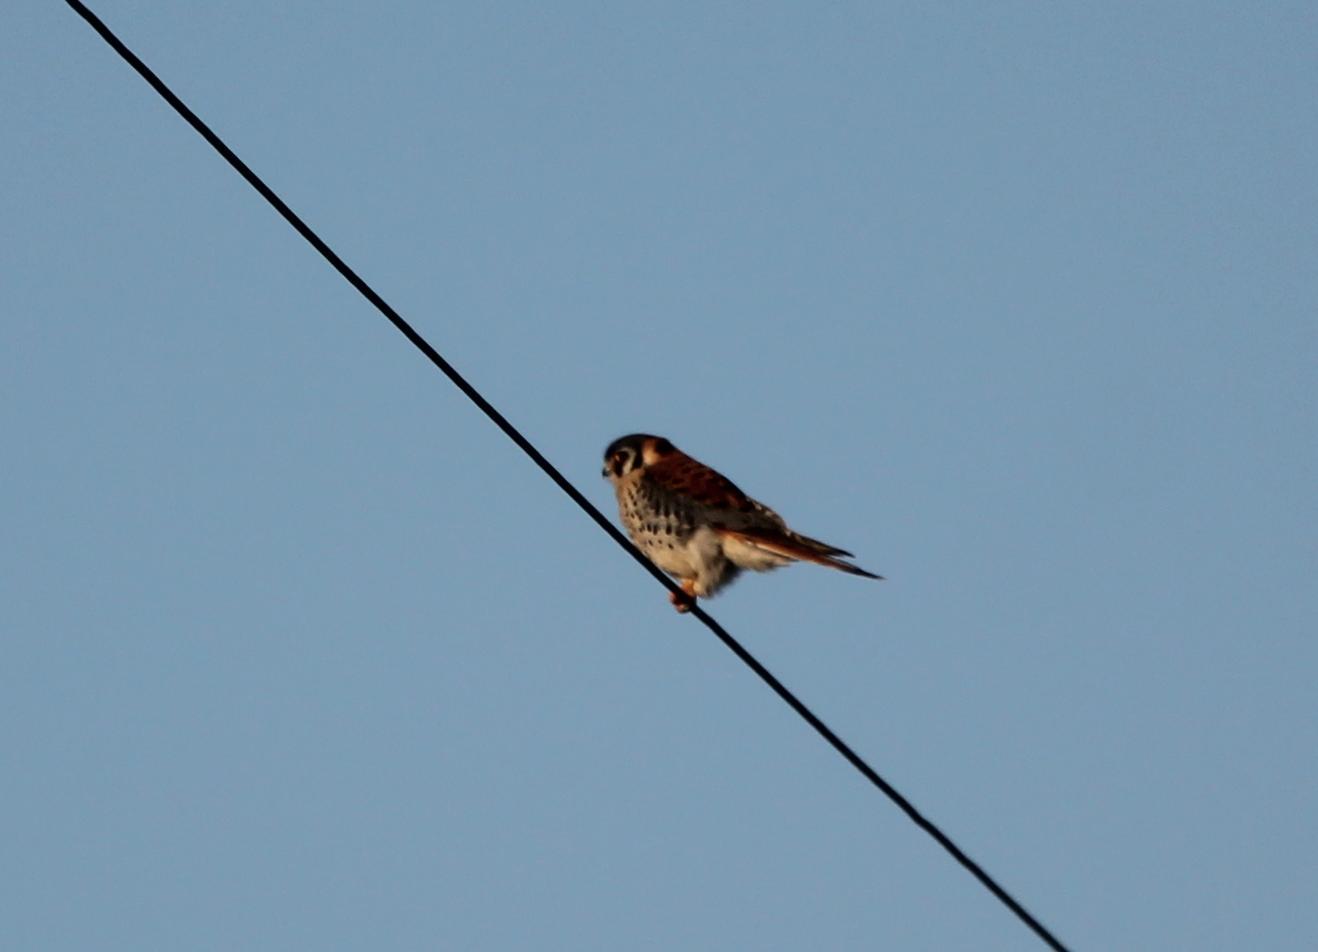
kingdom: Animalia
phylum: Chordata
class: Aves
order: Falconiformes
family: Falconidae
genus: Falco
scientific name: Falco sparverius
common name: American kestrel
